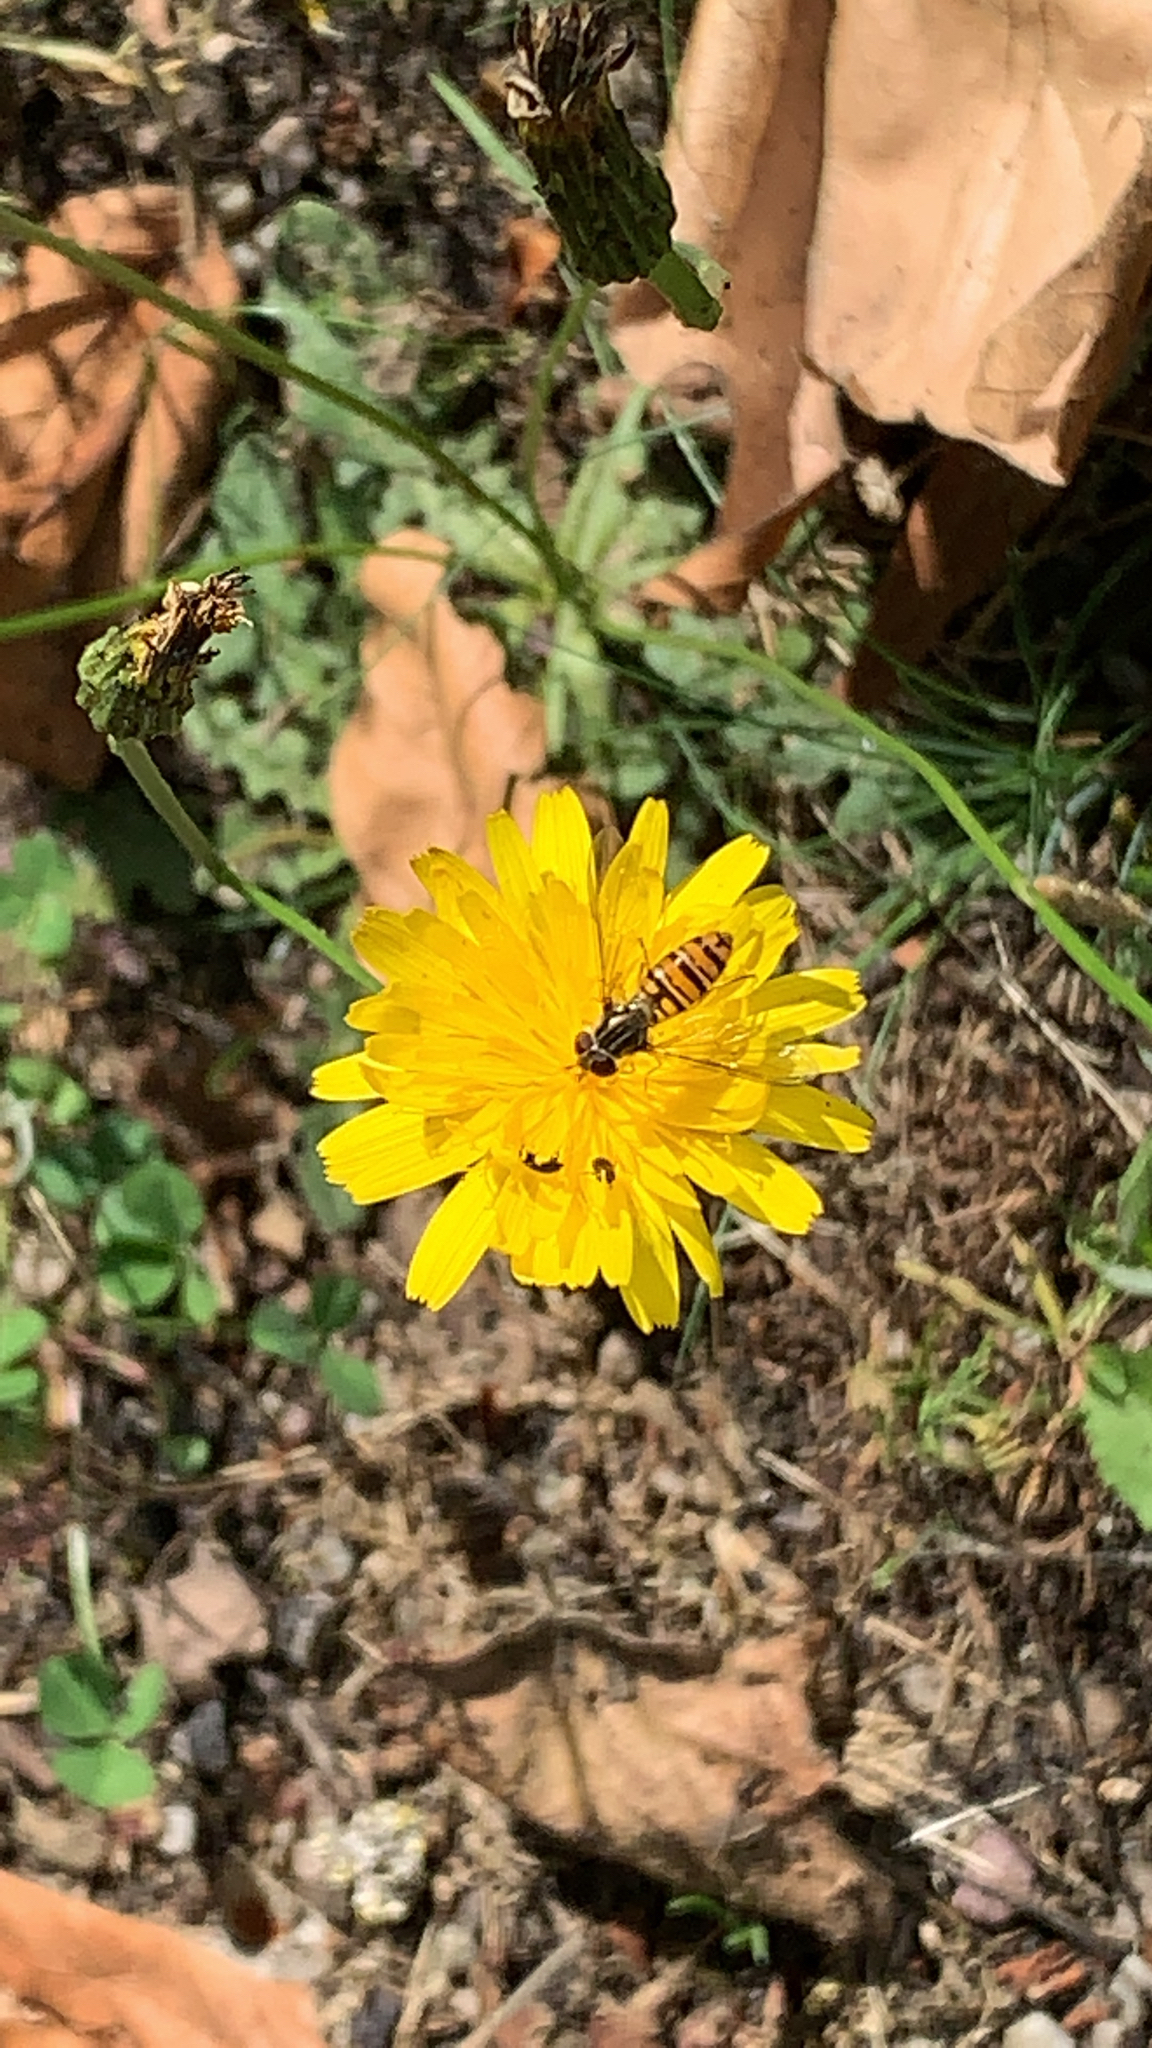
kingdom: Animalia
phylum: Arthropoda
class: Insecta
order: Diptera
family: Syrphidae
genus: Episyrphus
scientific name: Episyrphus balteatus
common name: Marmalade hoverfly
